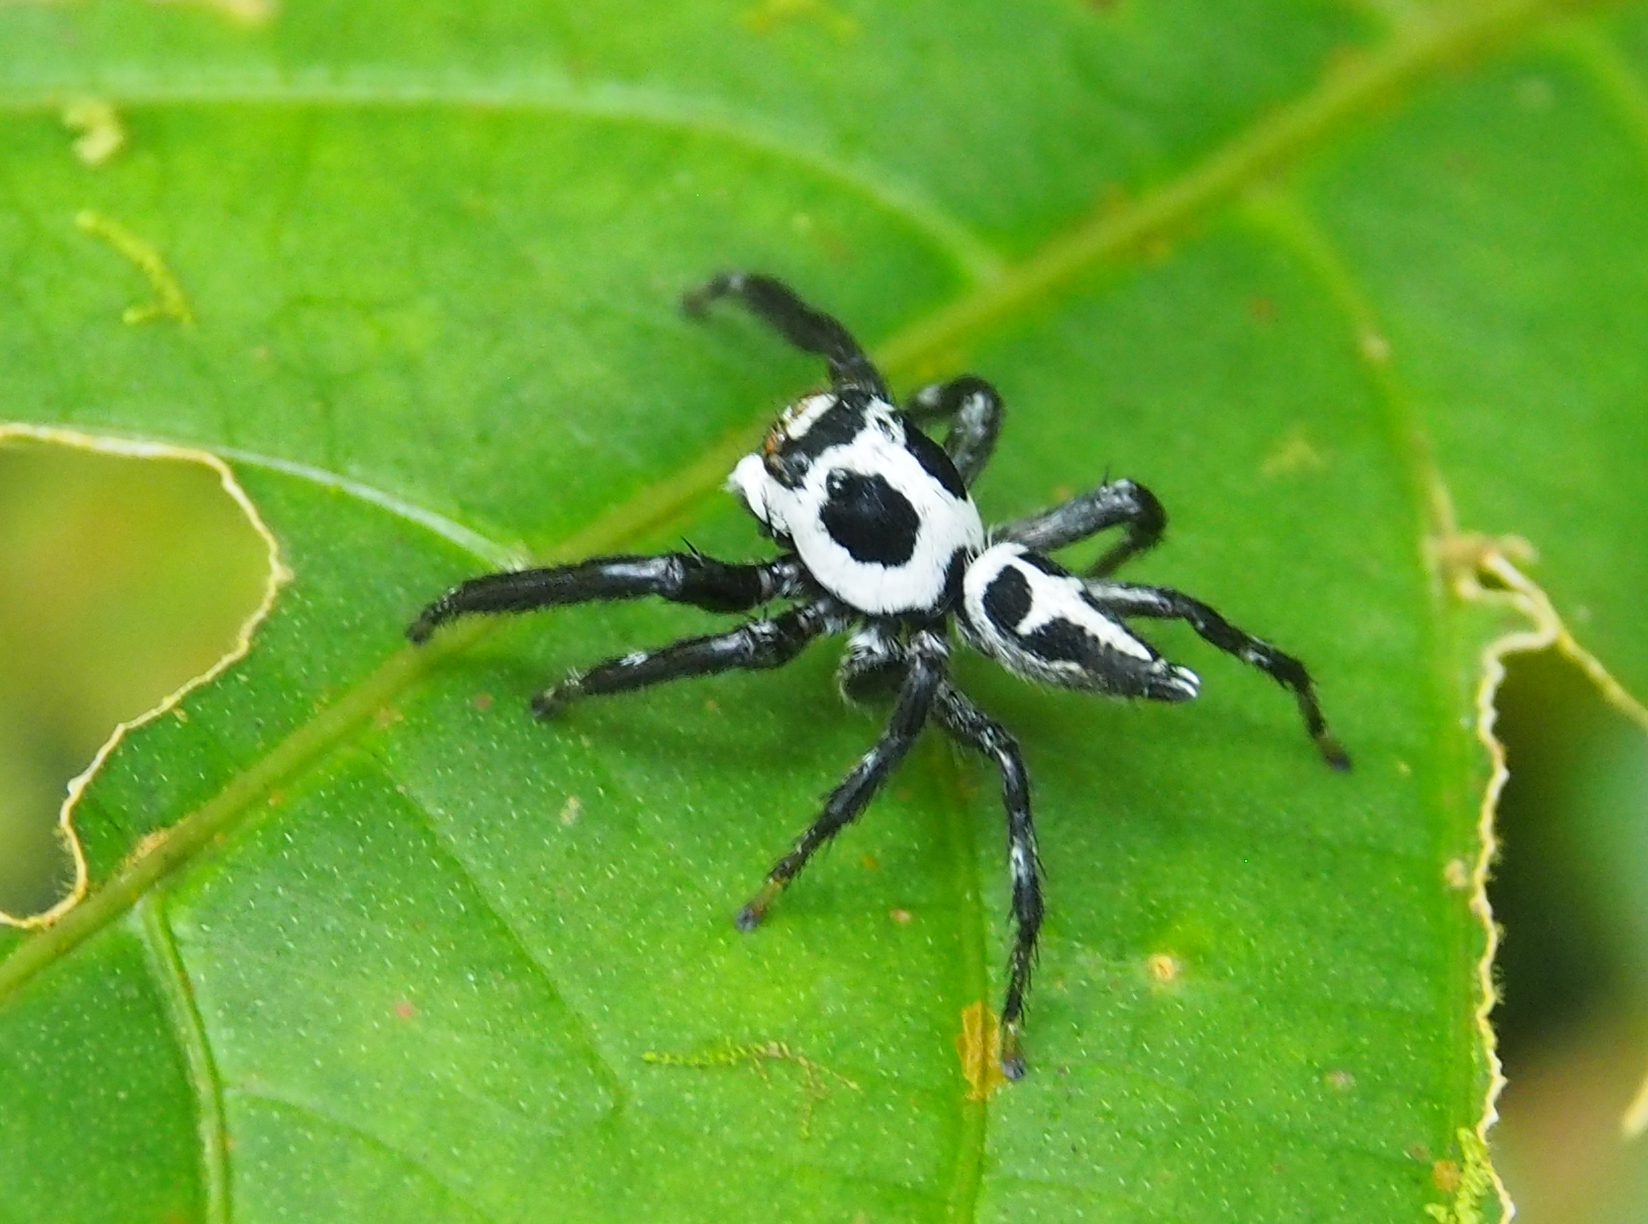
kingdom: Animalia
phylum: Arthropoda
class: Arachnida
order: Araneae
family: Salticidae
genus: Phiale
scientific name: Phiale formosa
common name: Jumping spiders
